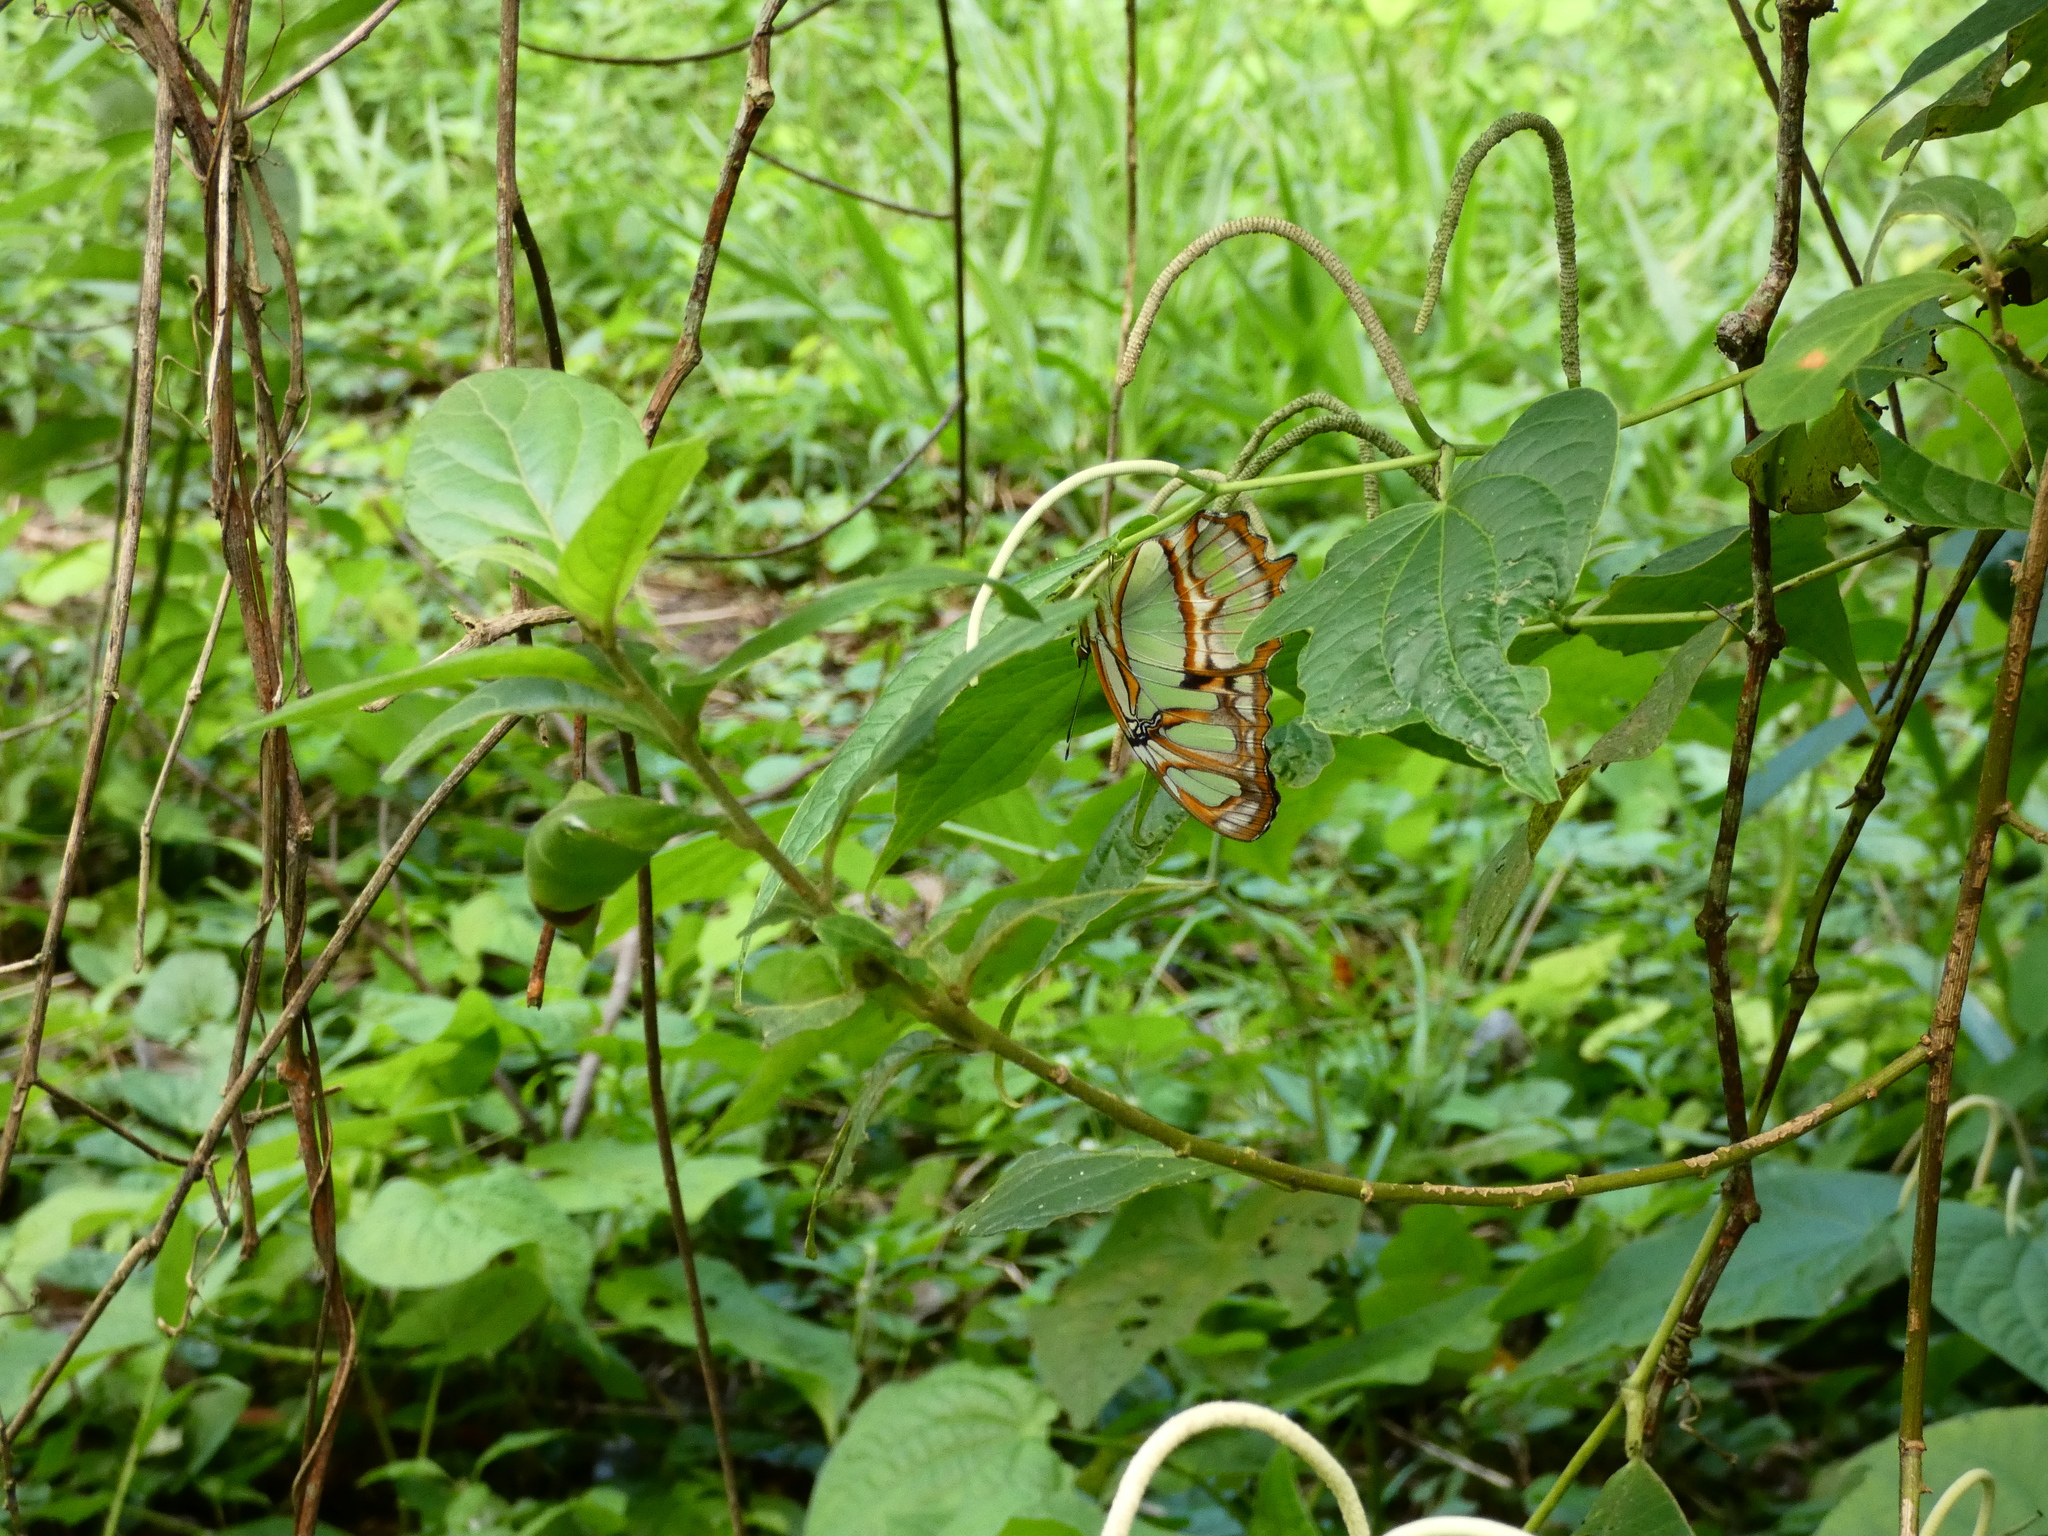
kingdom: Animalia
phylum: Arthropoda
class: Insecta
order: Lepidoptera
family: Nymphalidae
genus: Siproeta
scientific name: Siproeta stelenes
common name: Malachite
